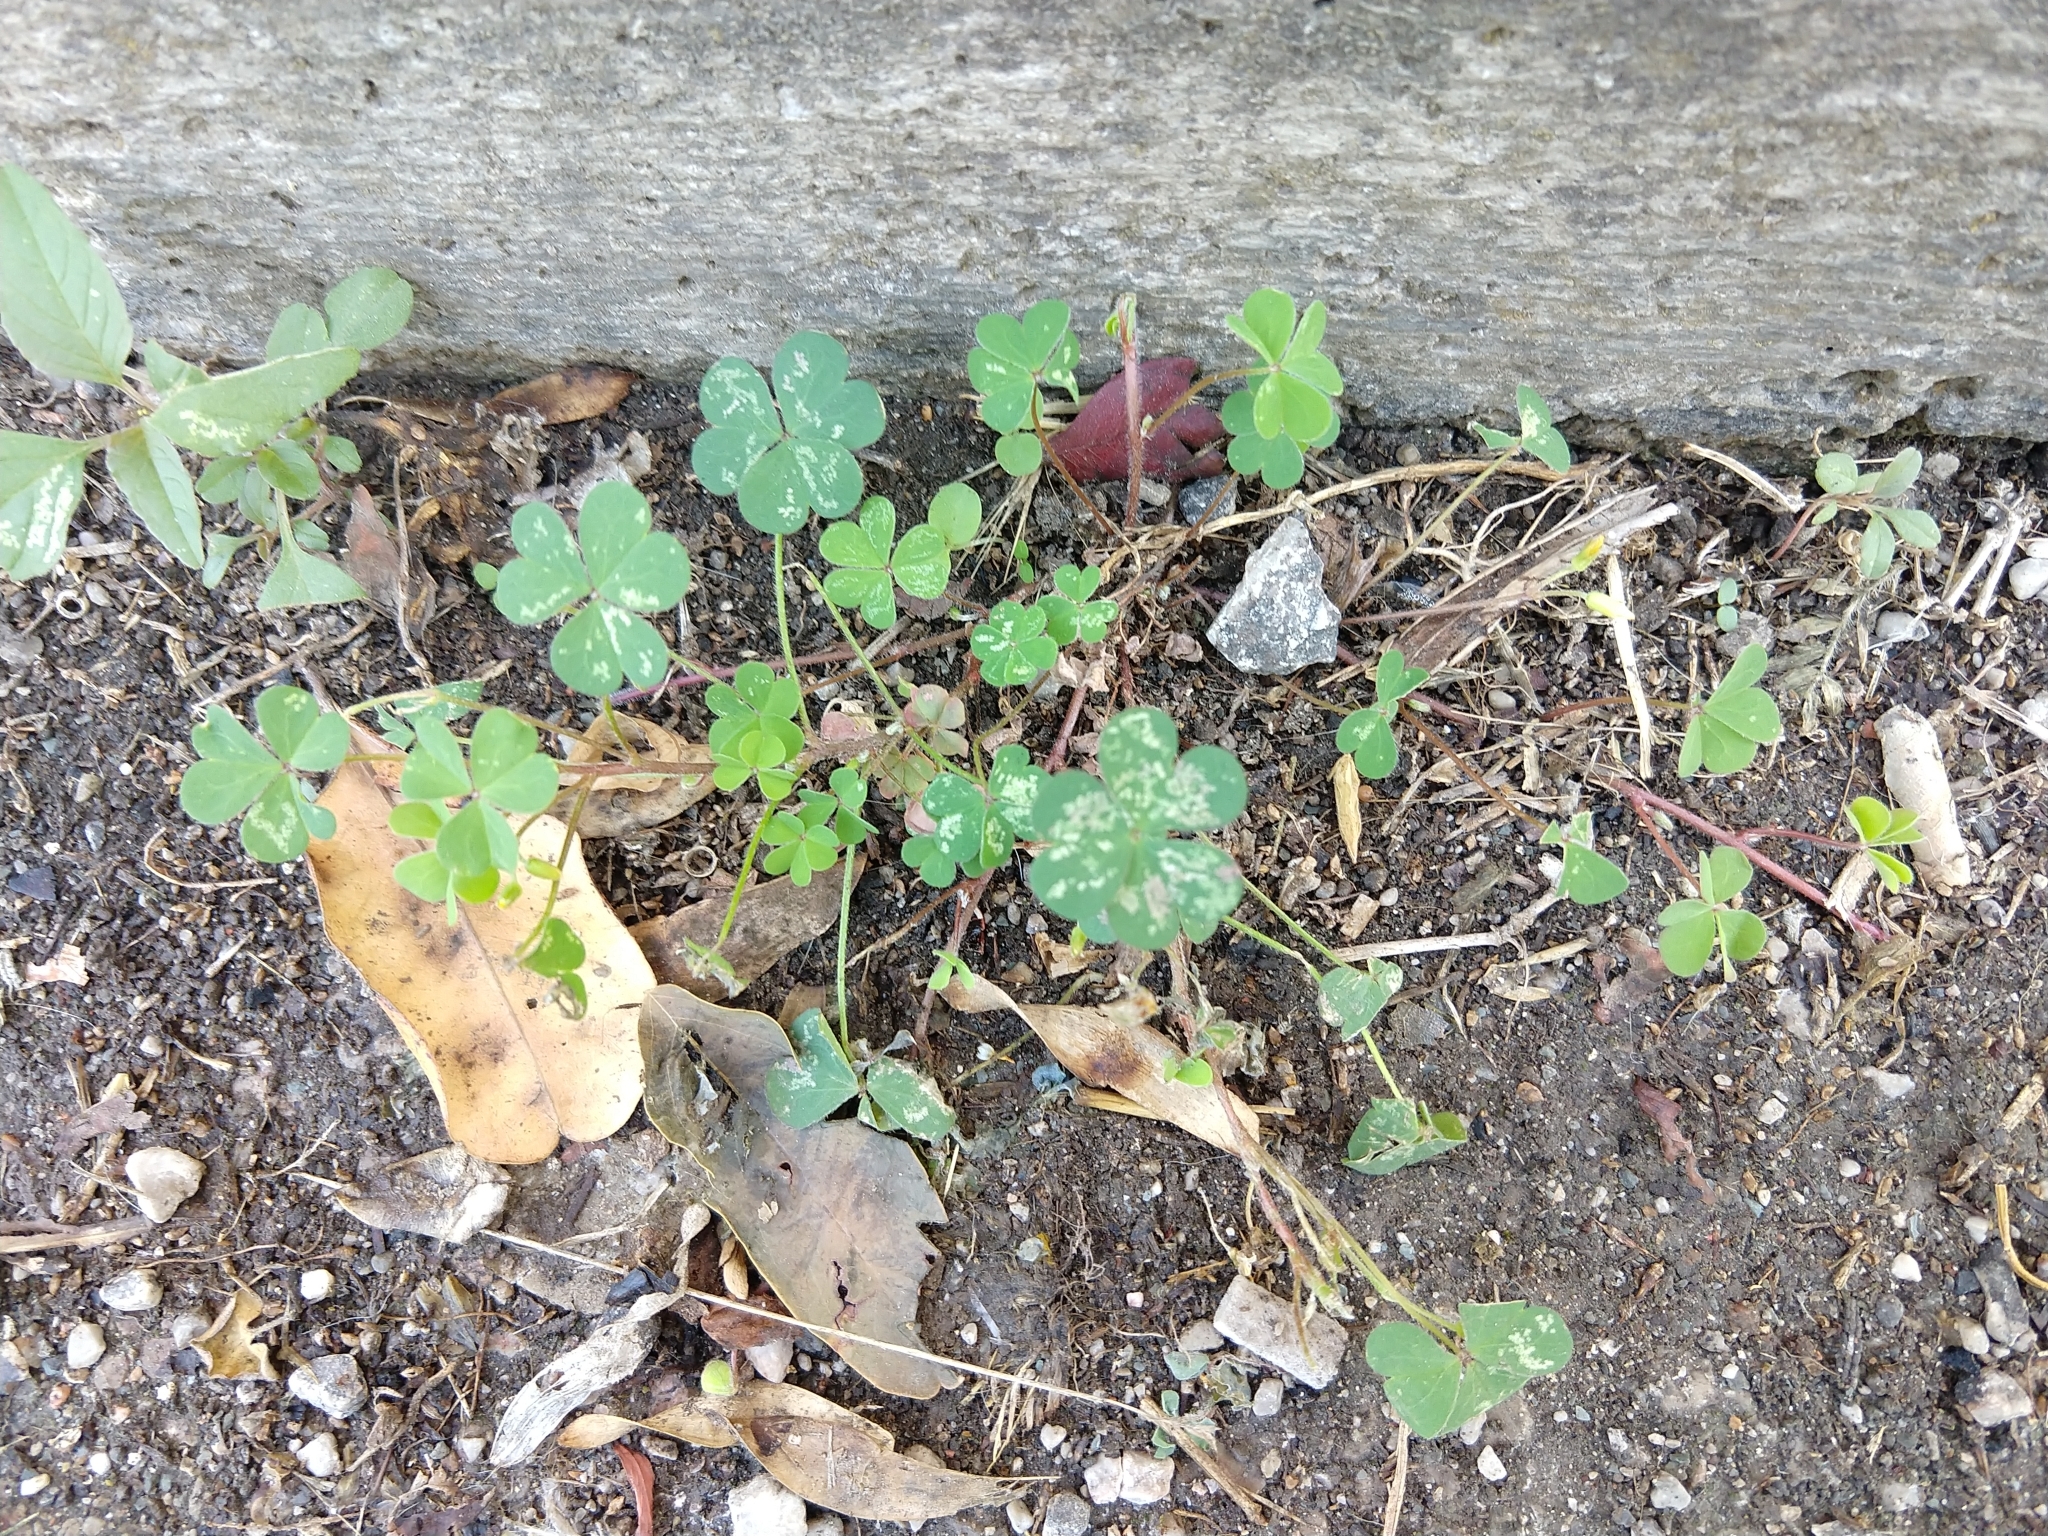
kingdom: Plantae
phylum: Tracheophyta
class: Magnoliopsida
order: Oxalidales
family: Oxalidaceae
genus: Oxalis
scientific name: Oxalis corniculata
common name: Procumbent yellow-sorrel
